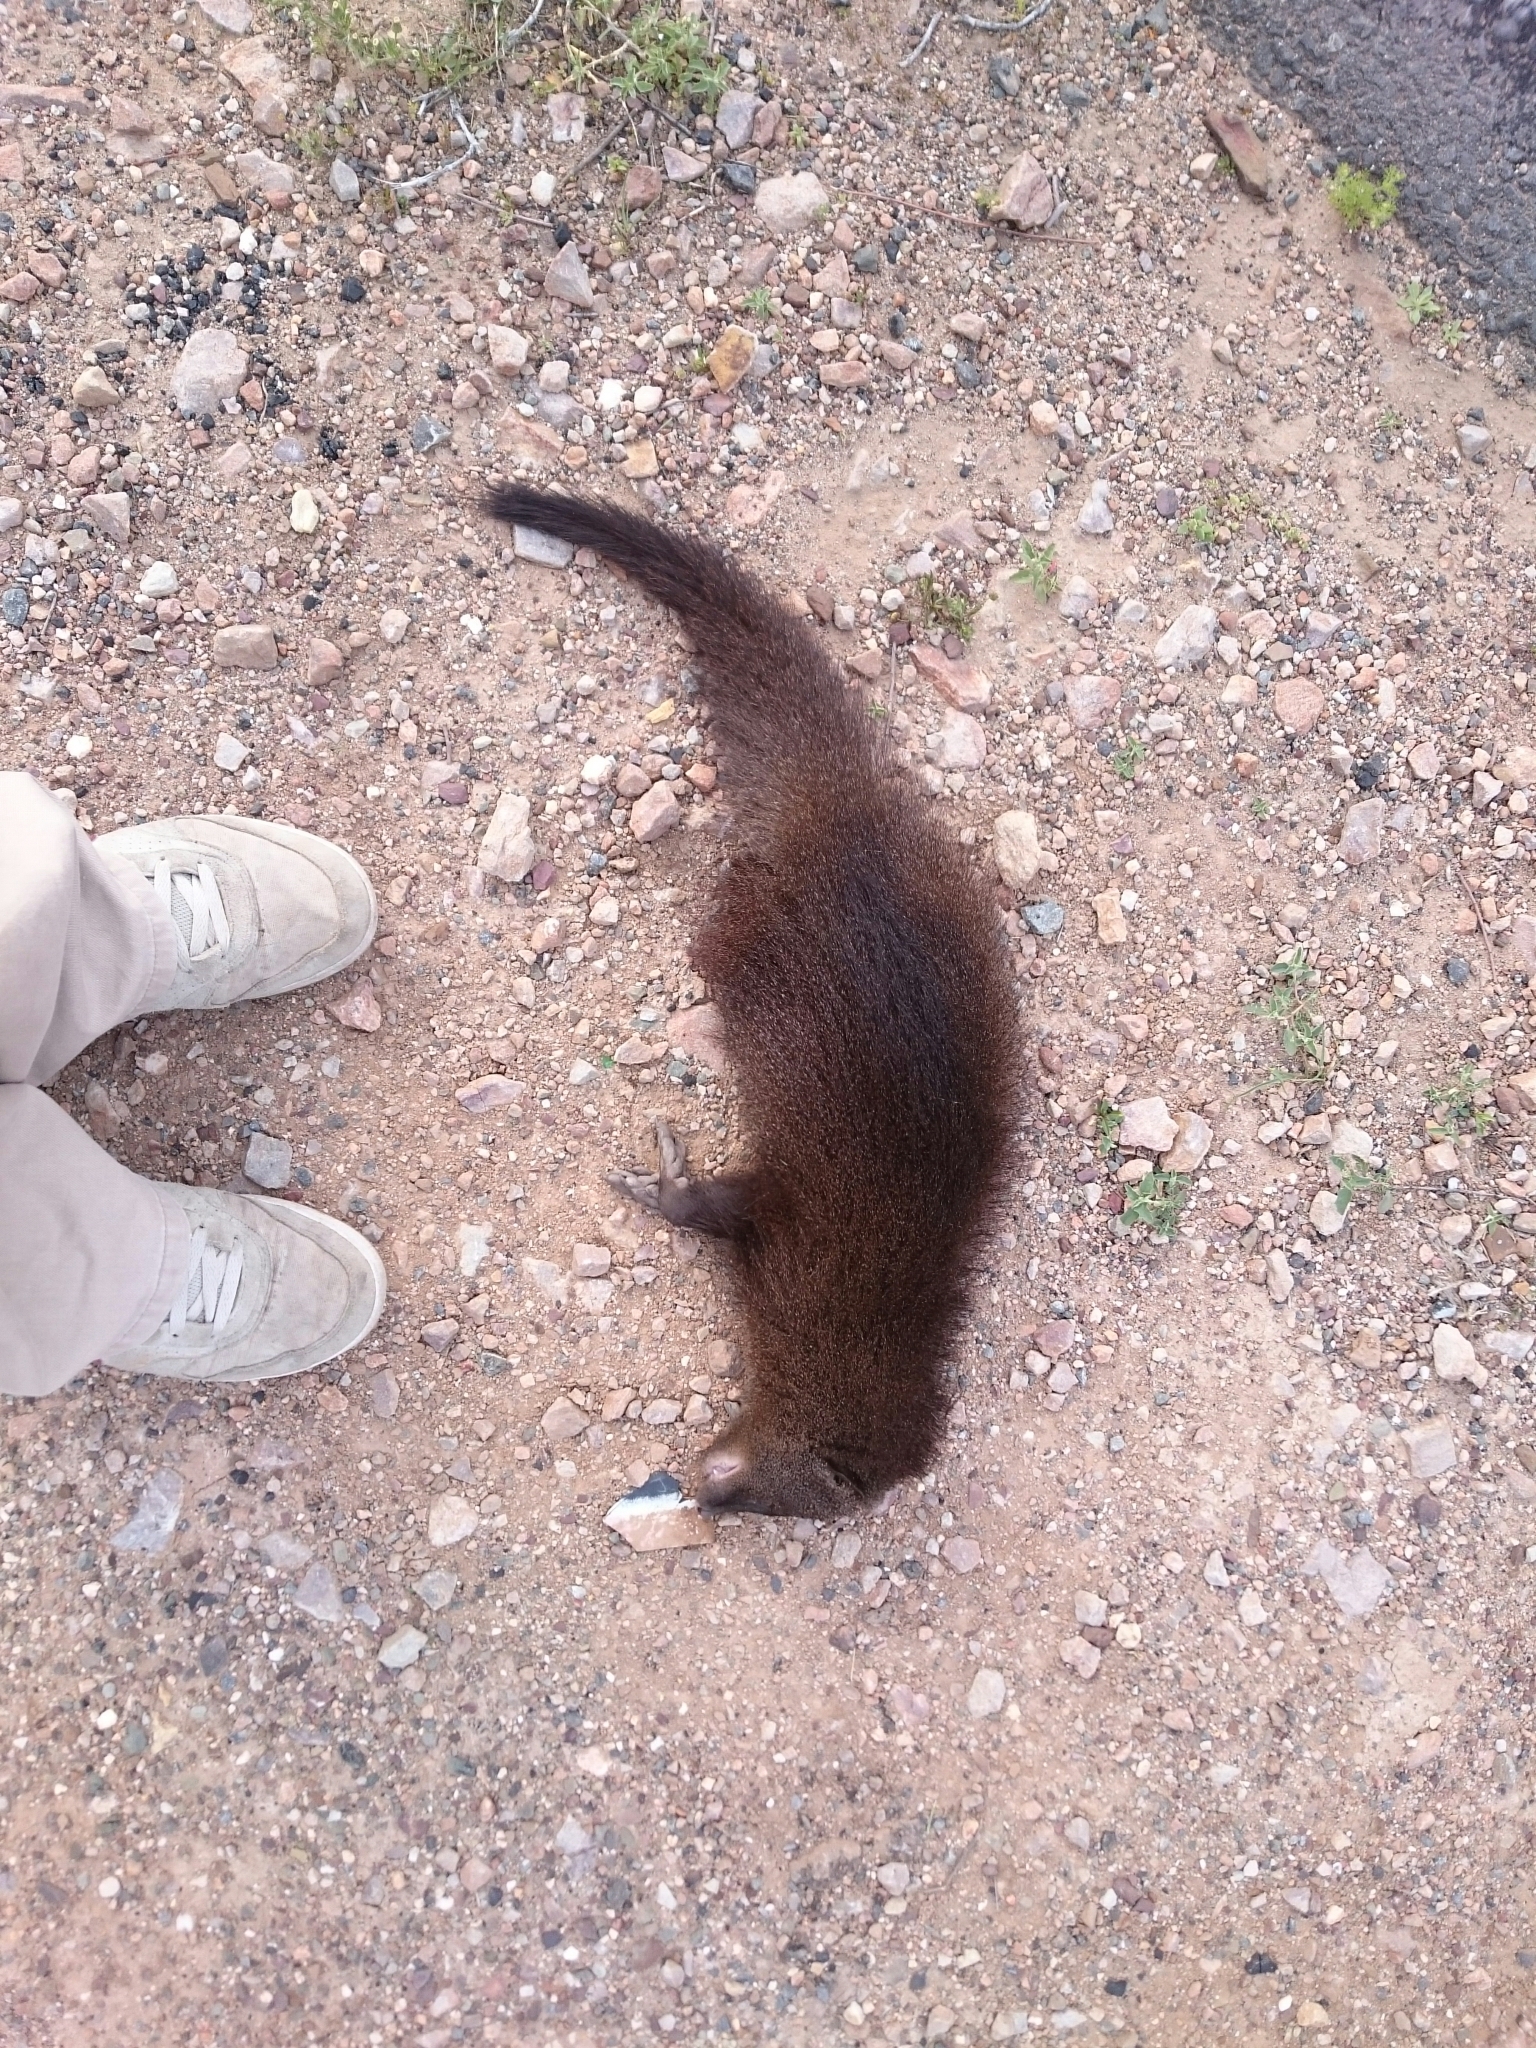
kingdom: Animalia
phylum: Chordata
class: Mammalia
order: Carnivora
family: Herpestidae
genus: Atilax
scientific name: Atilax paludinosus
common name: Marsh mongoose
